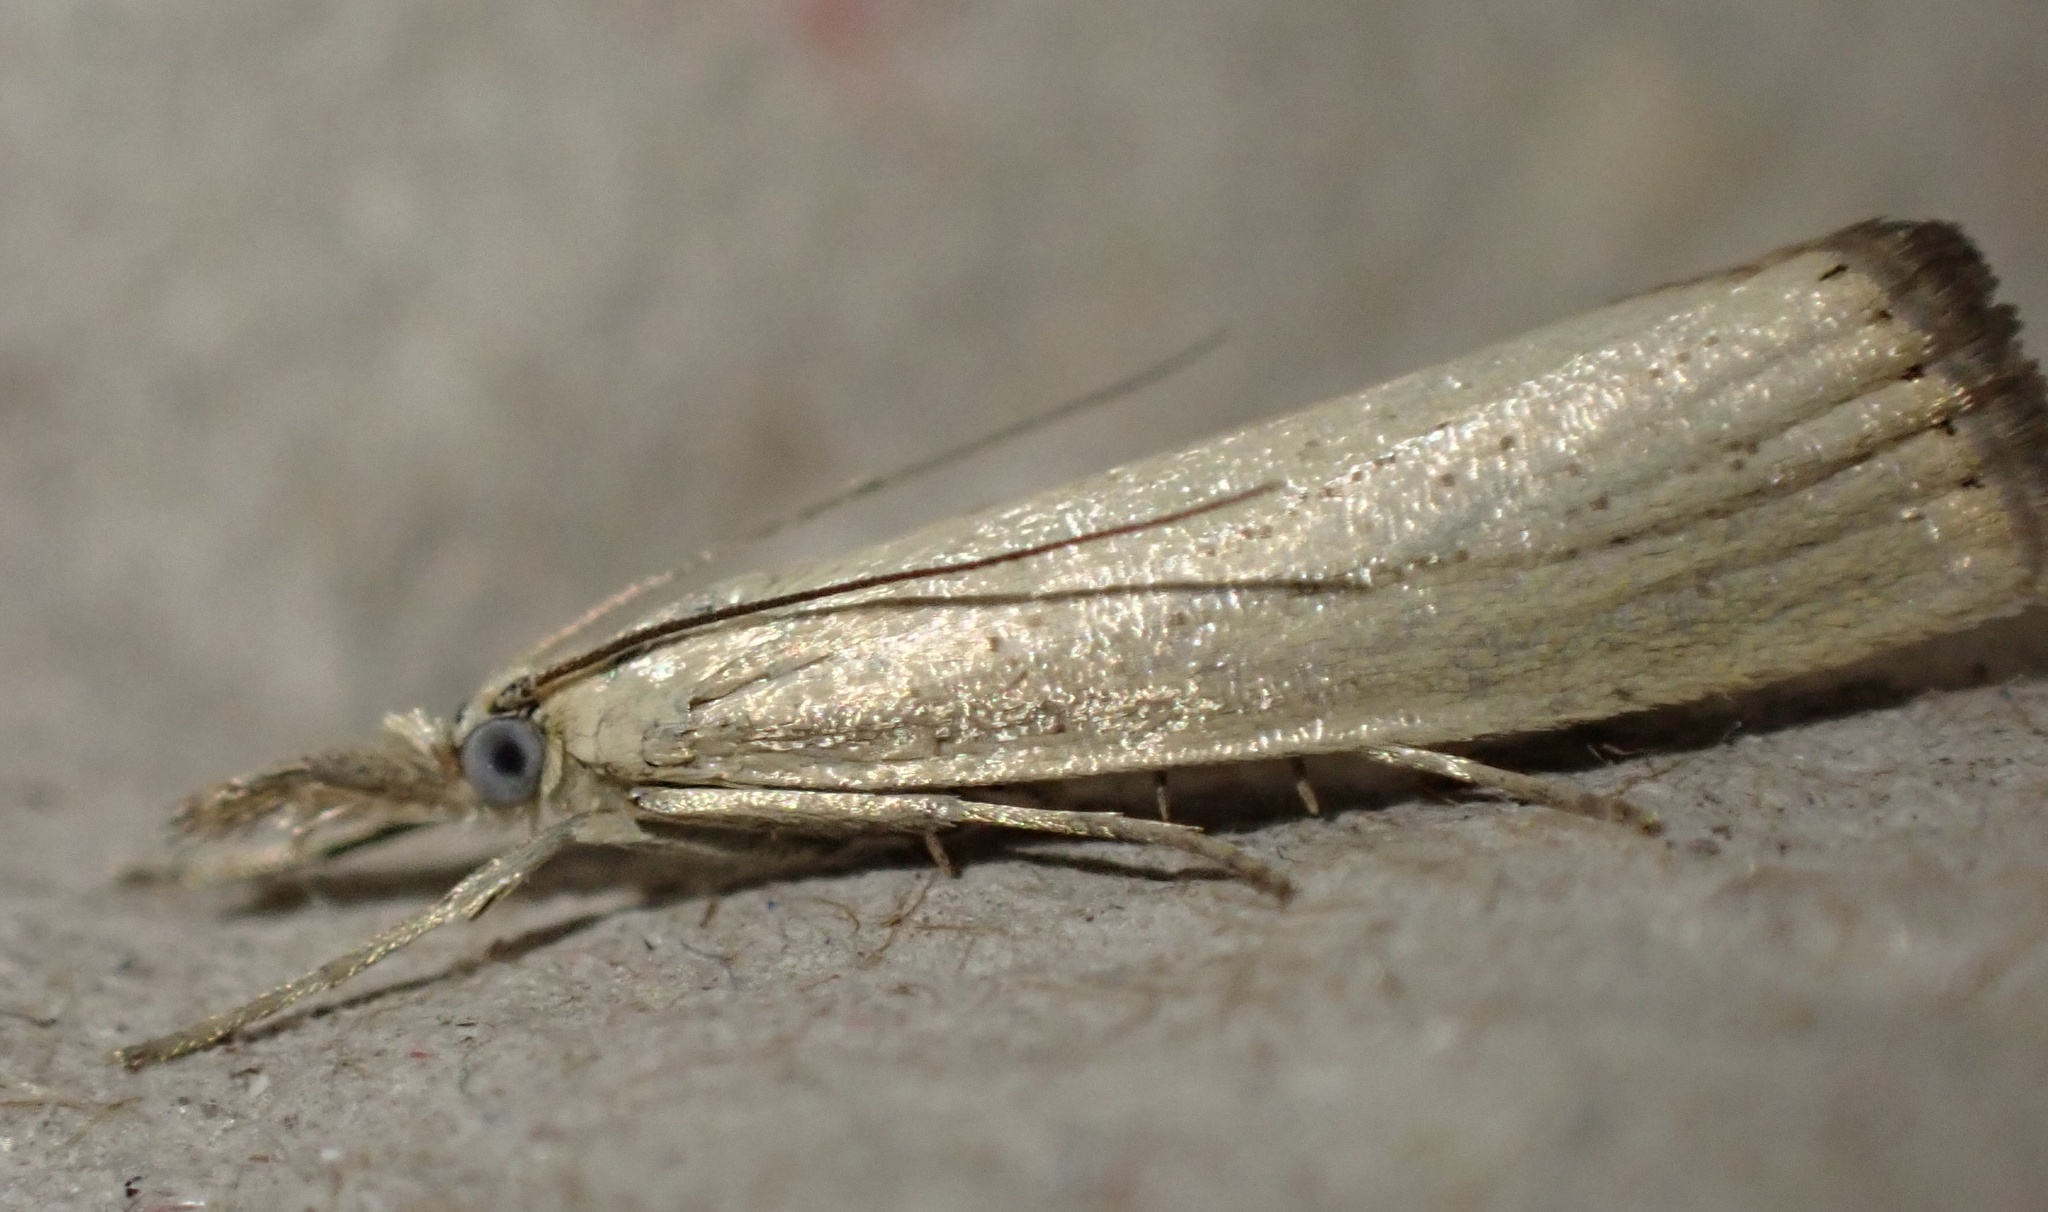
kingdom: Animalia
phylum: Arthropoda
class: Insecta
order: Lepidoptera
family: Crambidae
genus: Agriphila
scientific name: Agriphila straminella
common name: Straw grass-veneer
